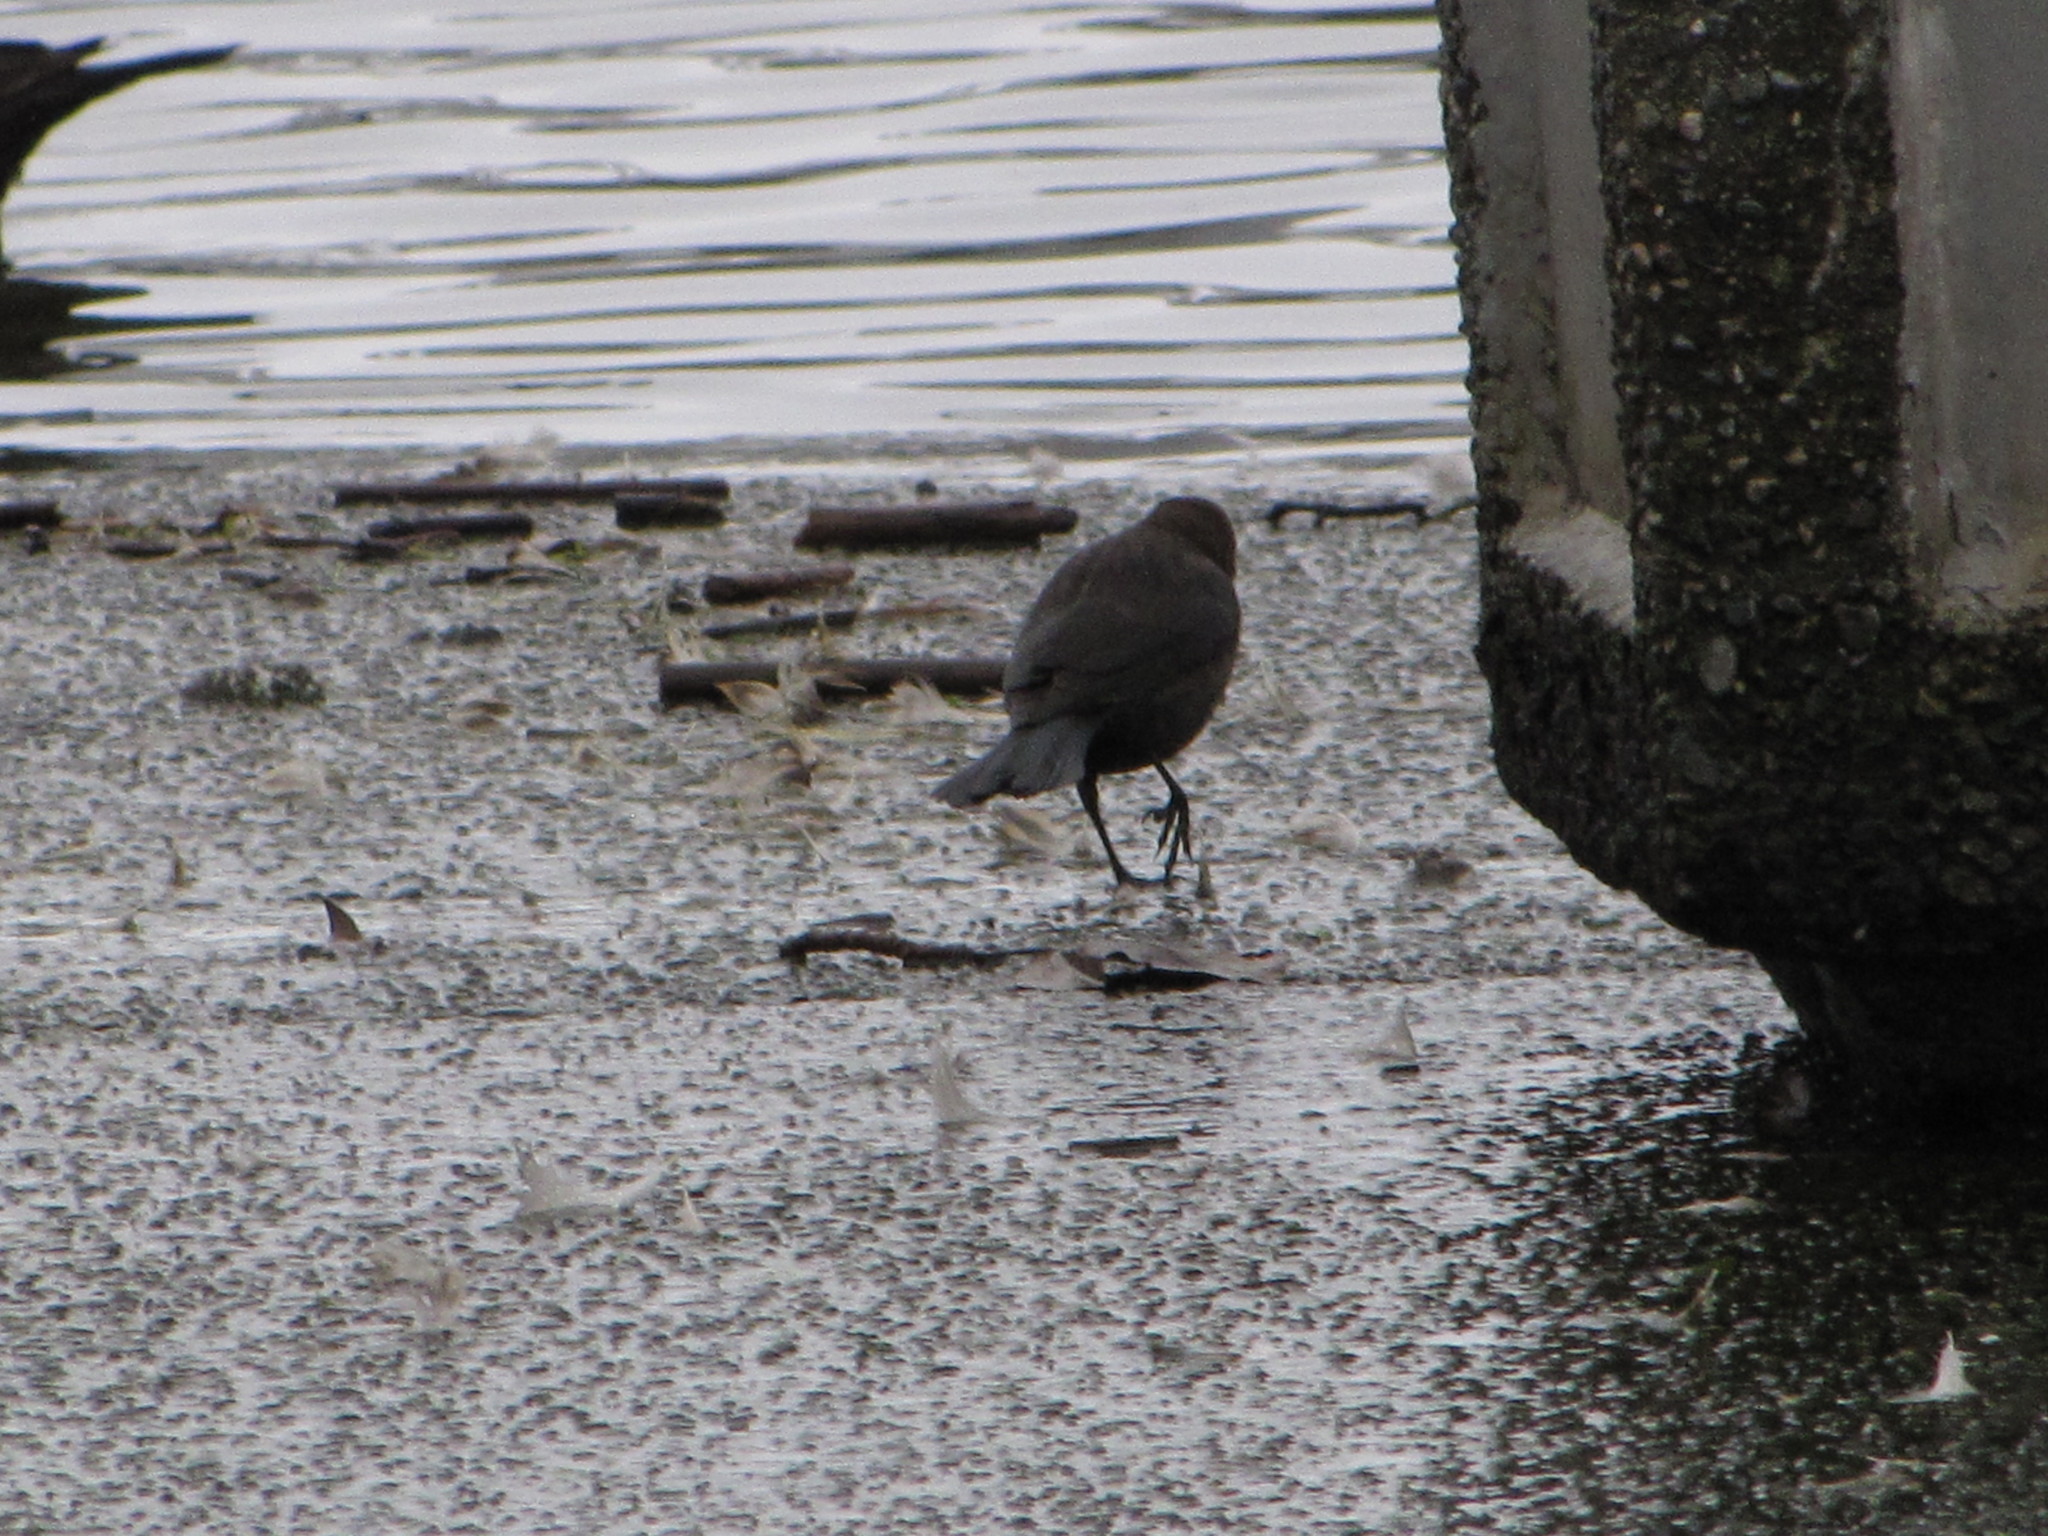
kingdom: Animalia
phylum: Chordata
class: Aves
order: Passeriformes
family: Icteridae
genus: Euphagus
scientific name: Euphagus cyanocephalus
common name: Brewer's blackbird
